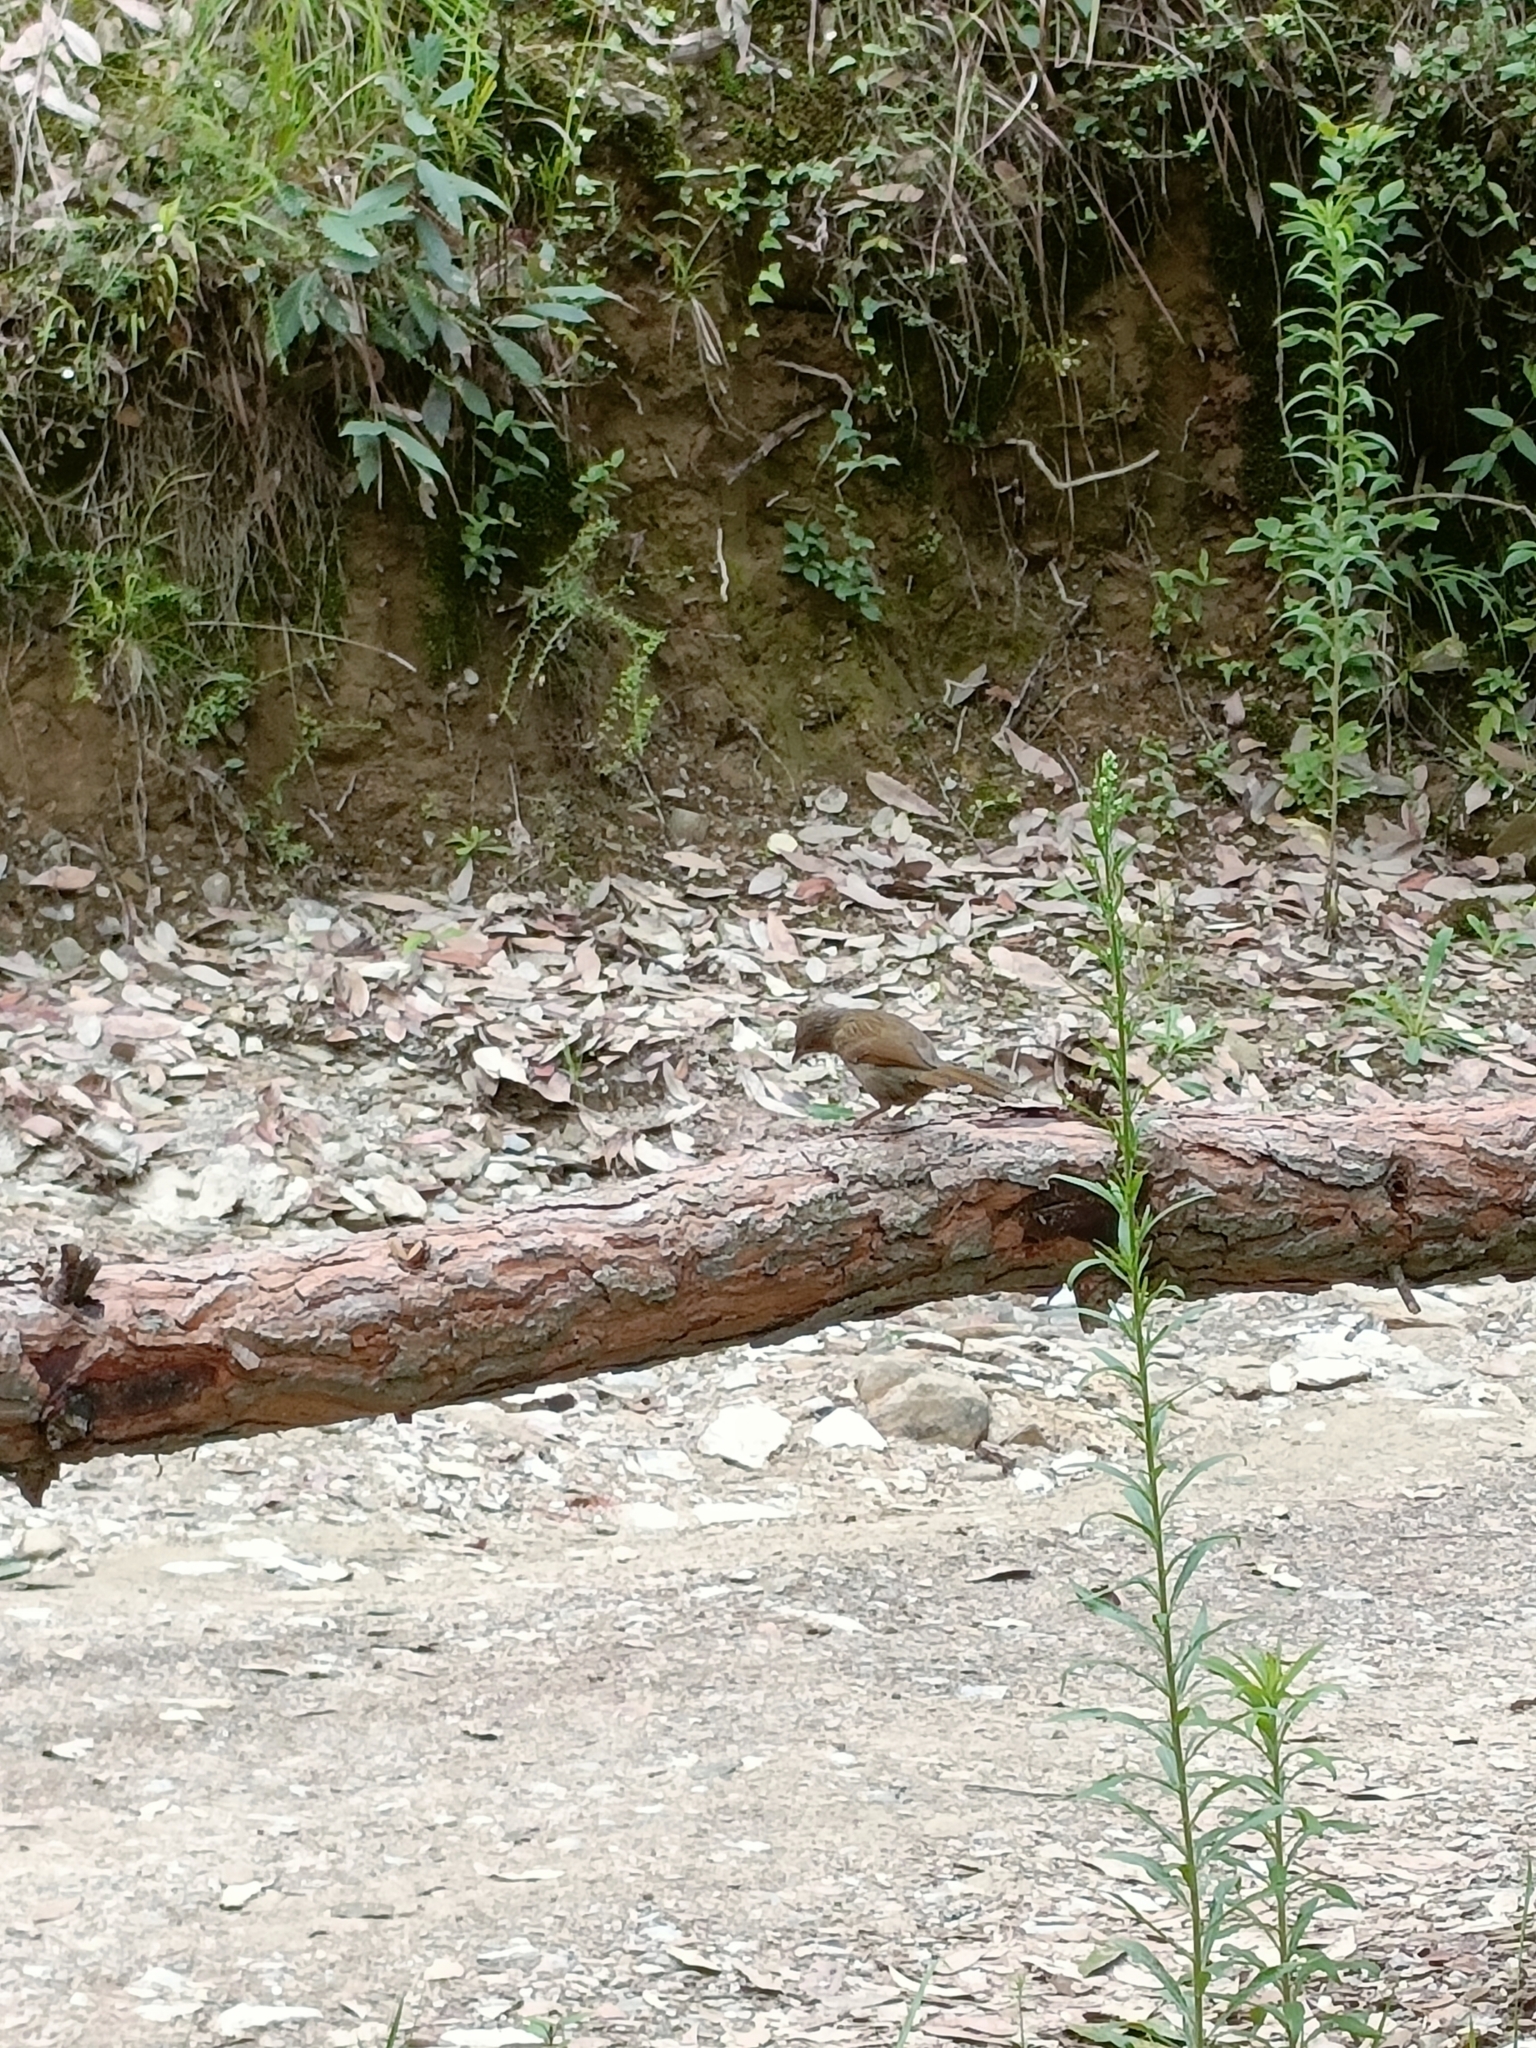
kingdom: Animalia
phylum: Chordata
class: Aves
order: Passeriformes
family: Leiothrichidae
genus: Trochalopteron
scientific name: Trochalopteron lineatum
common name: Streaked laughingthrush
